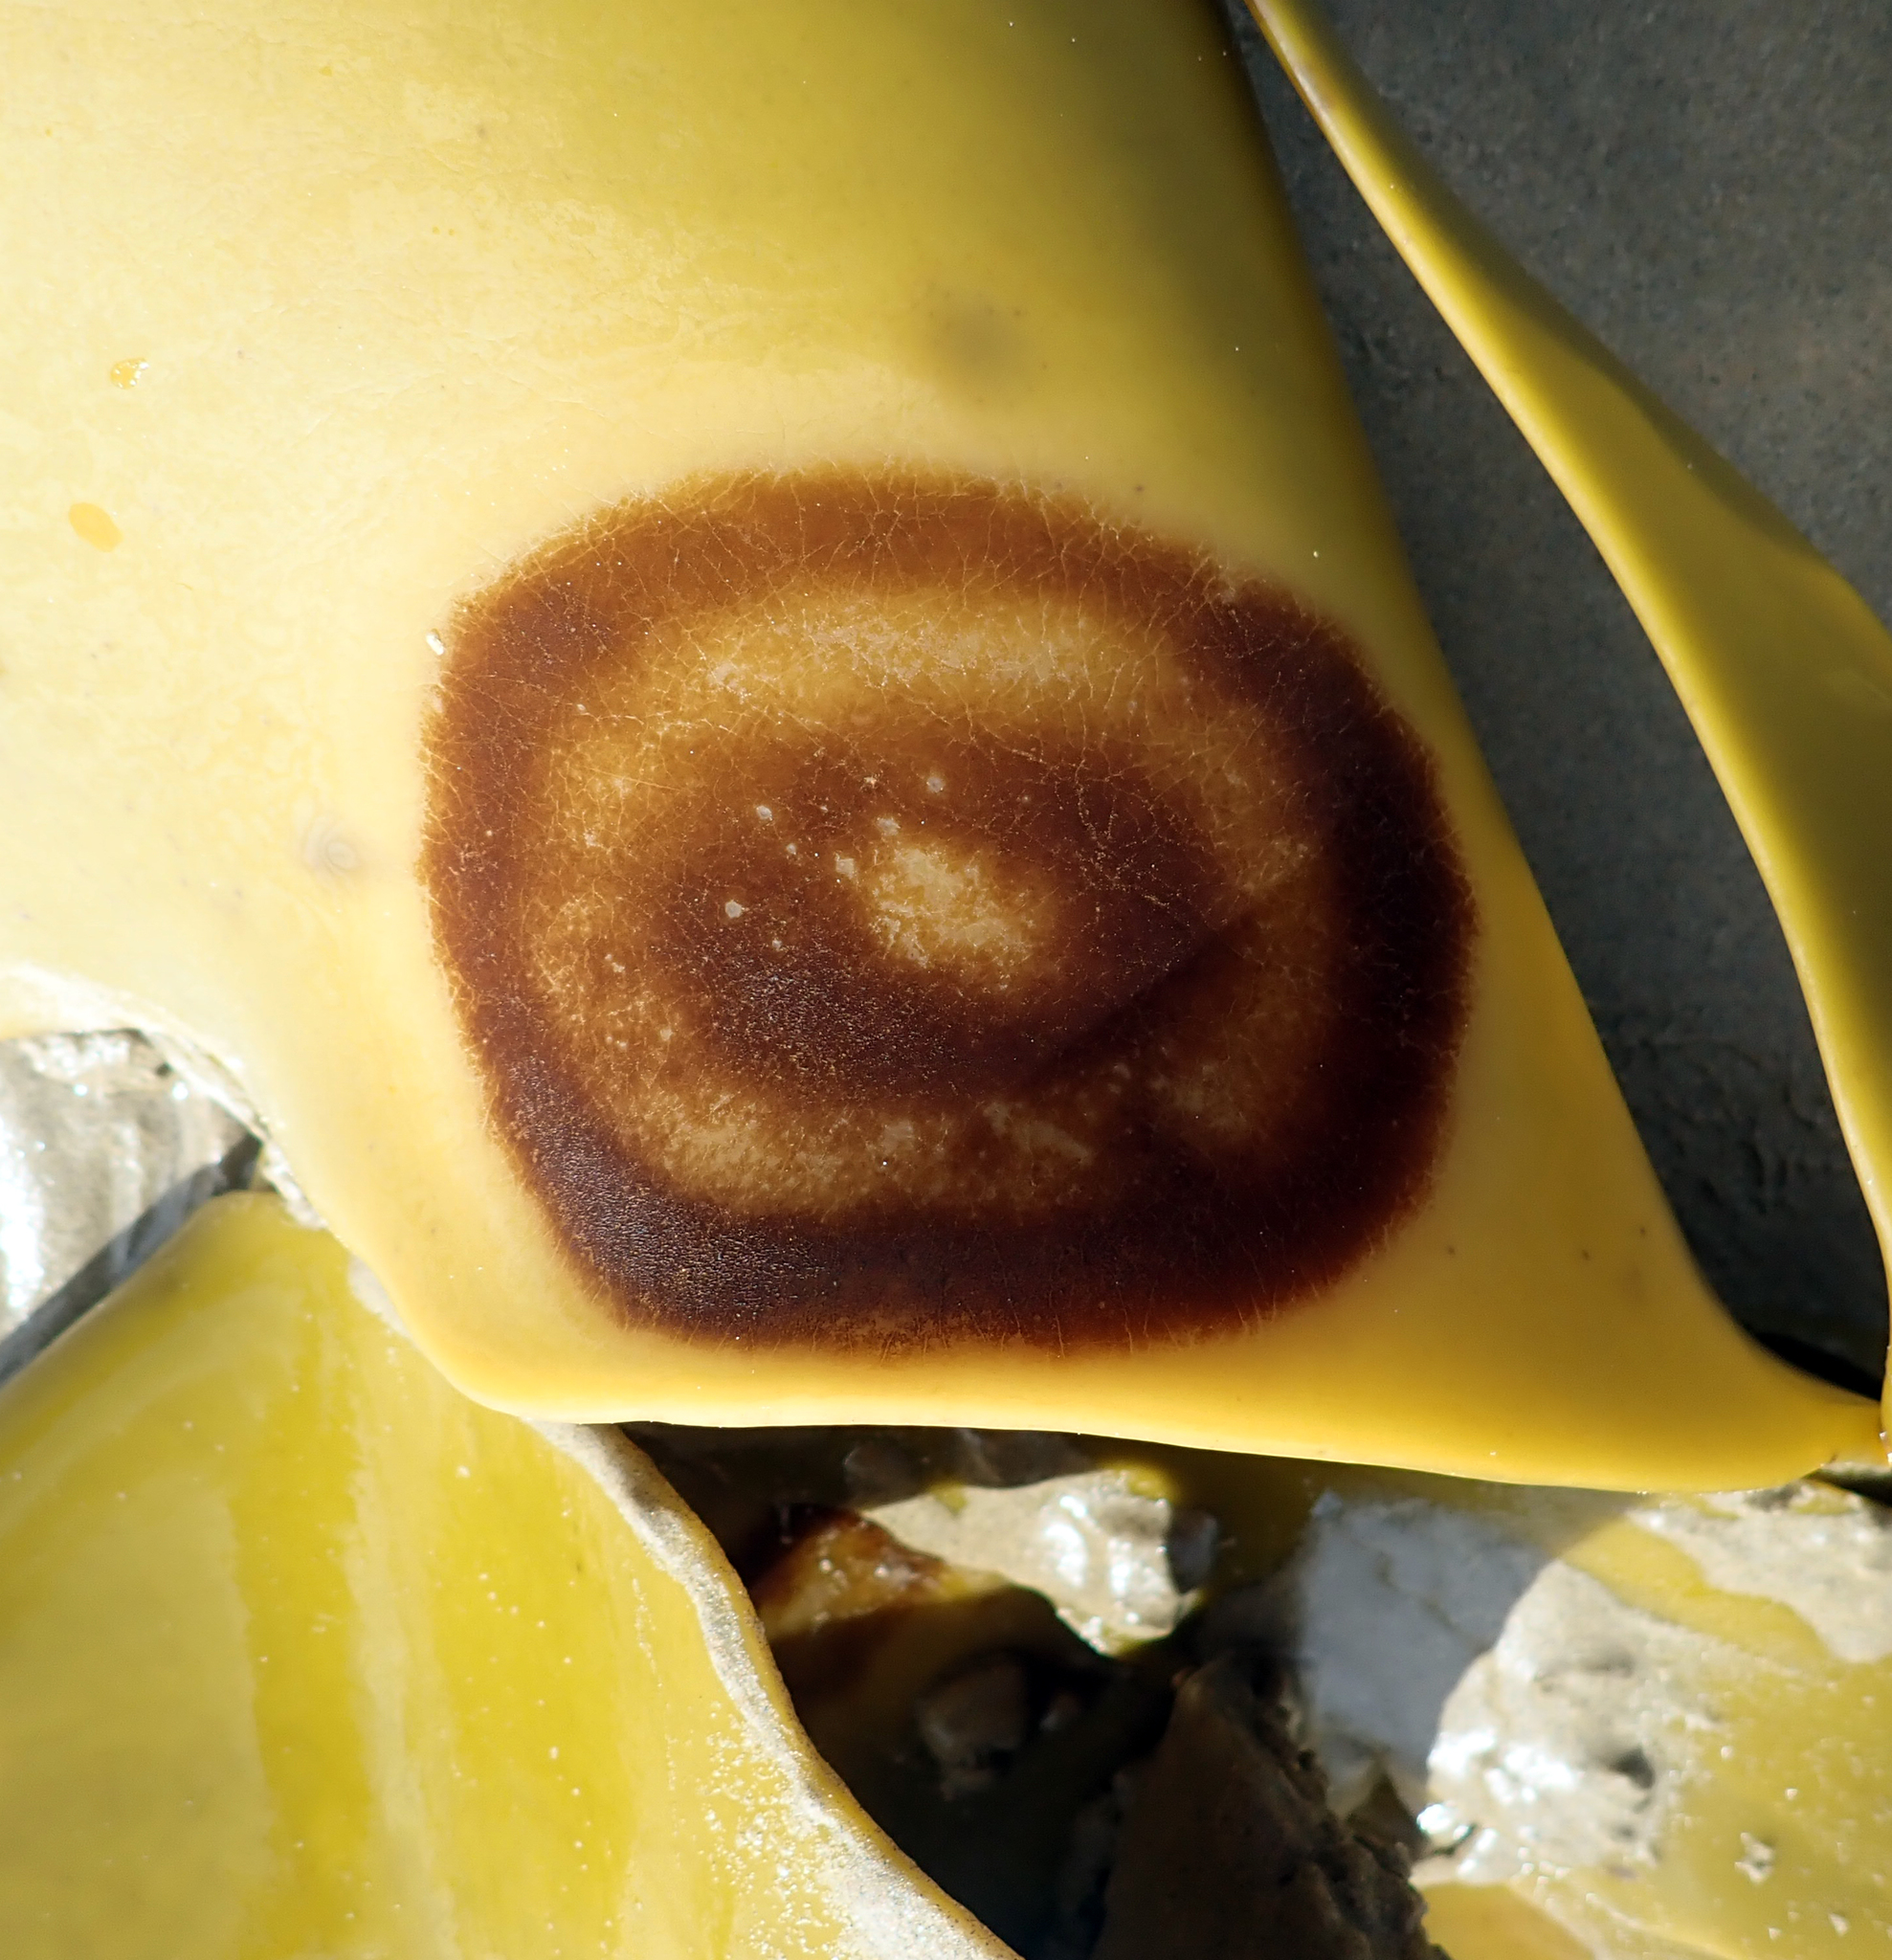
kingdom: Chromista
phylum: Ochrophyta
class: Phaeophyceae
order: Sphacelariales
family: Sphacelariaceae
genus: Herpodiscus
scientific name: Herpodiscus durvilleae
